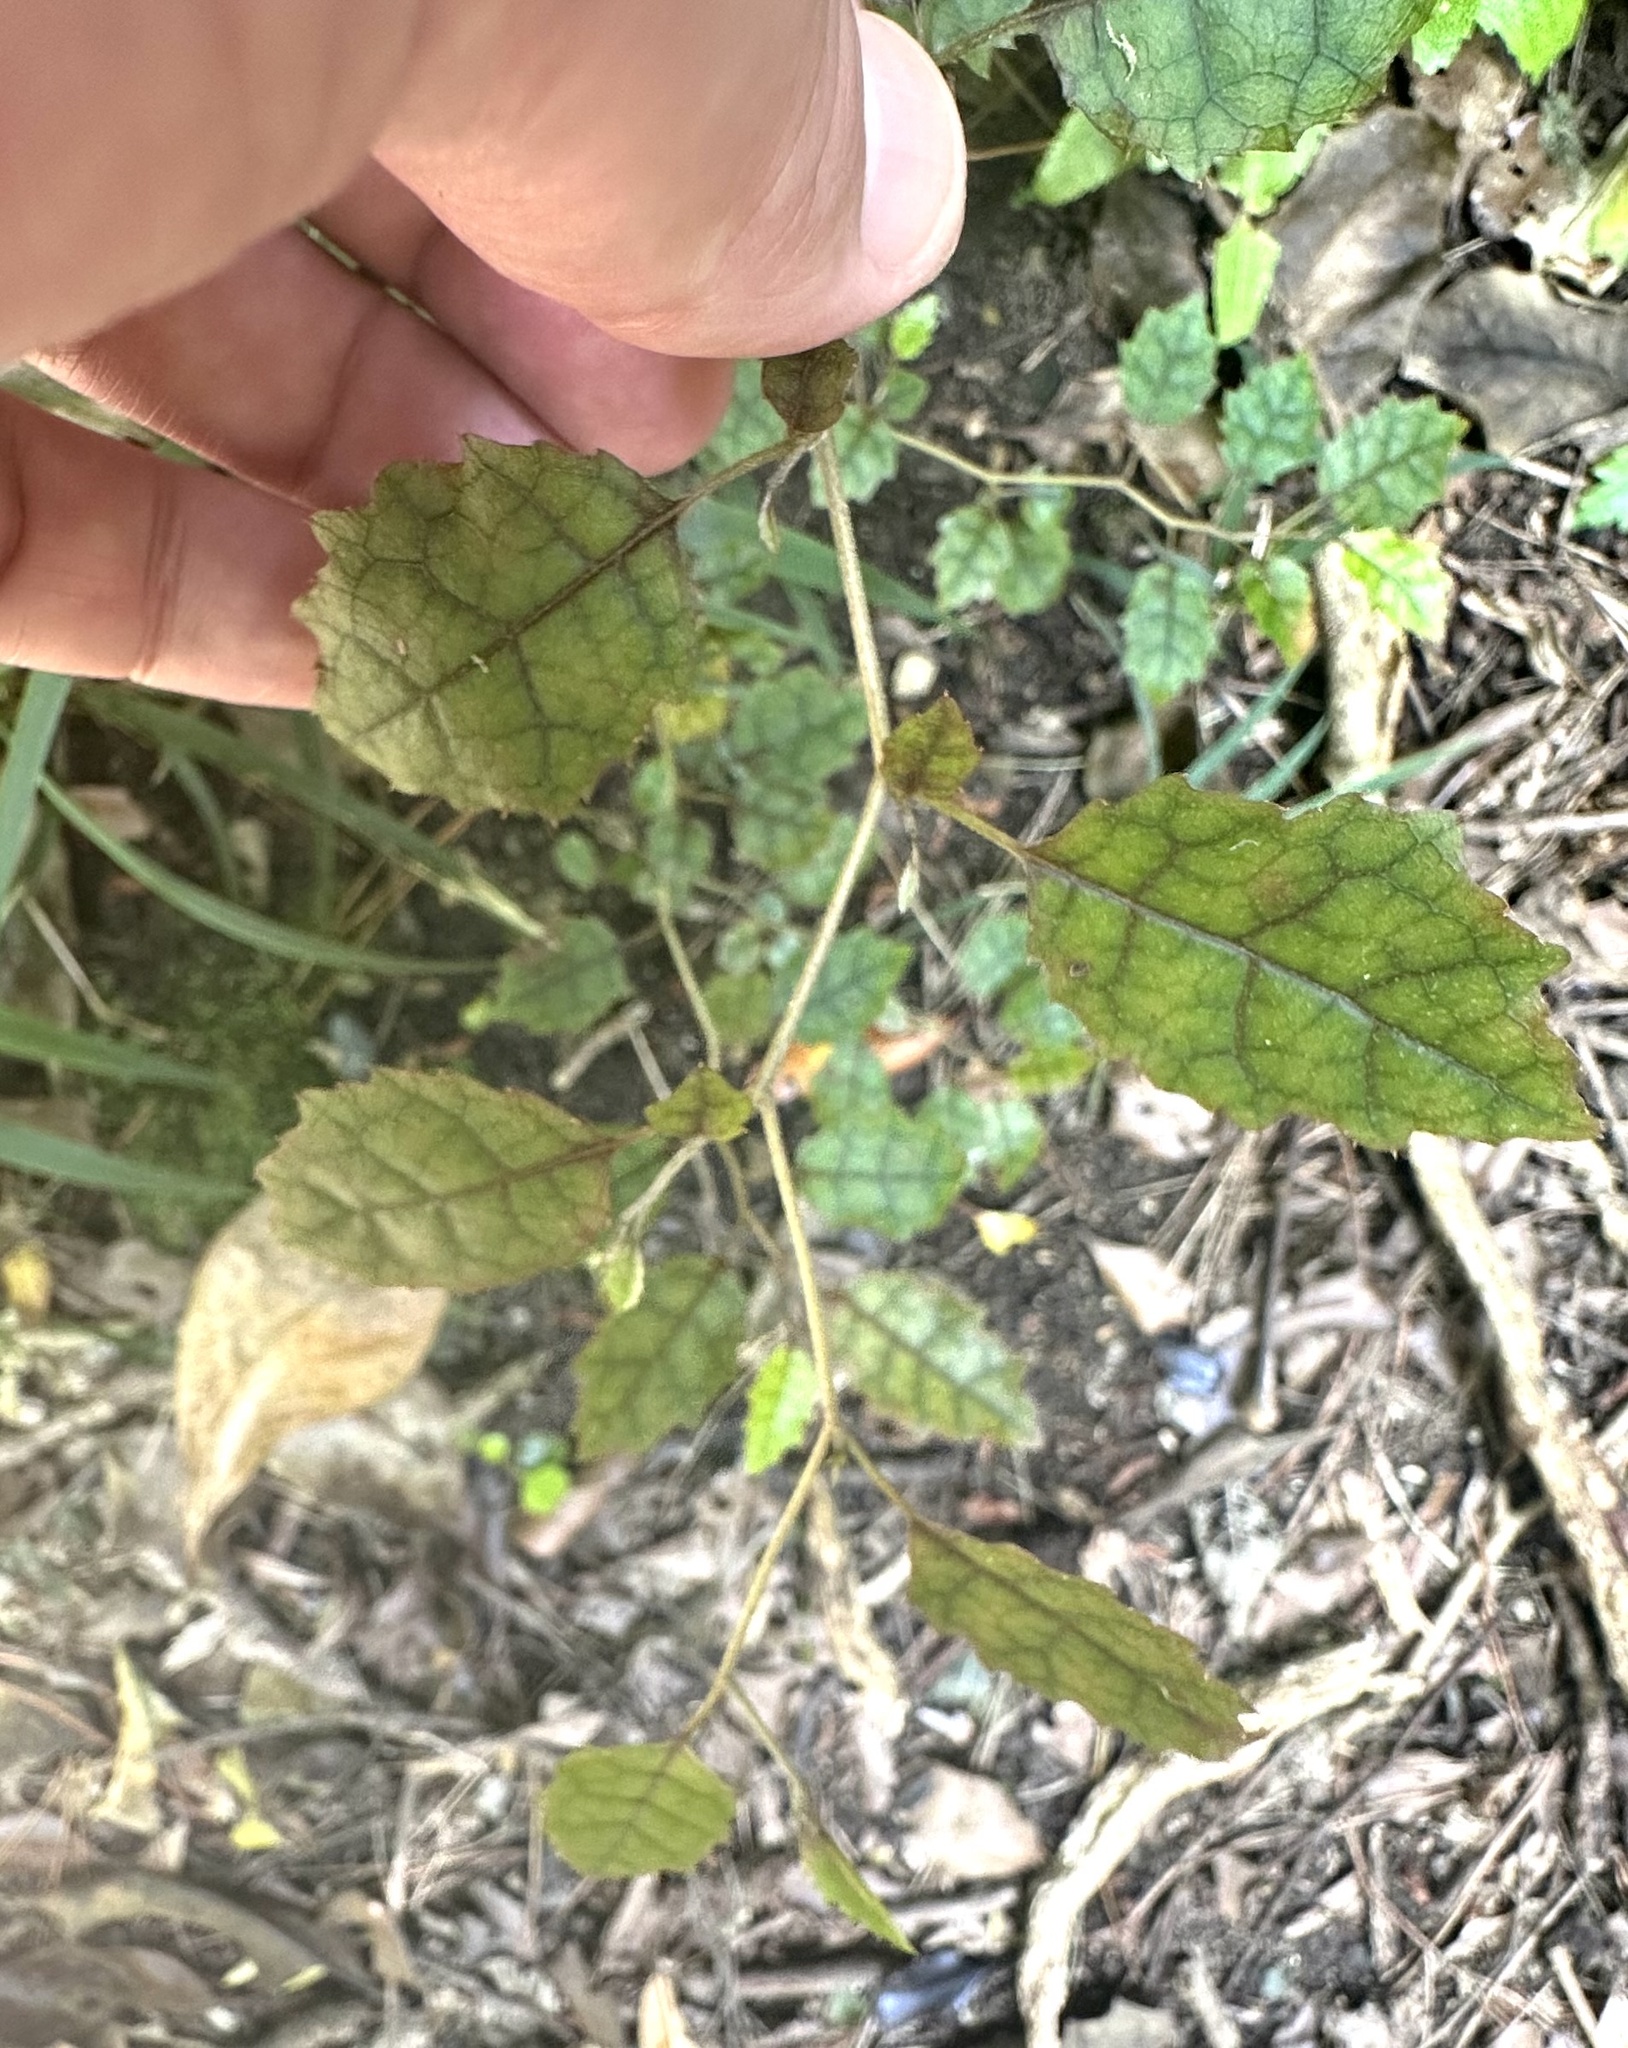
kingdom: Plantae
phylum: Tracheophyta
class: Magnoliopsida
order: Asterales
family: Rousseaceae
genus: Carpodetus
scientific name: Carpodetus serratus
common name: White mapau
